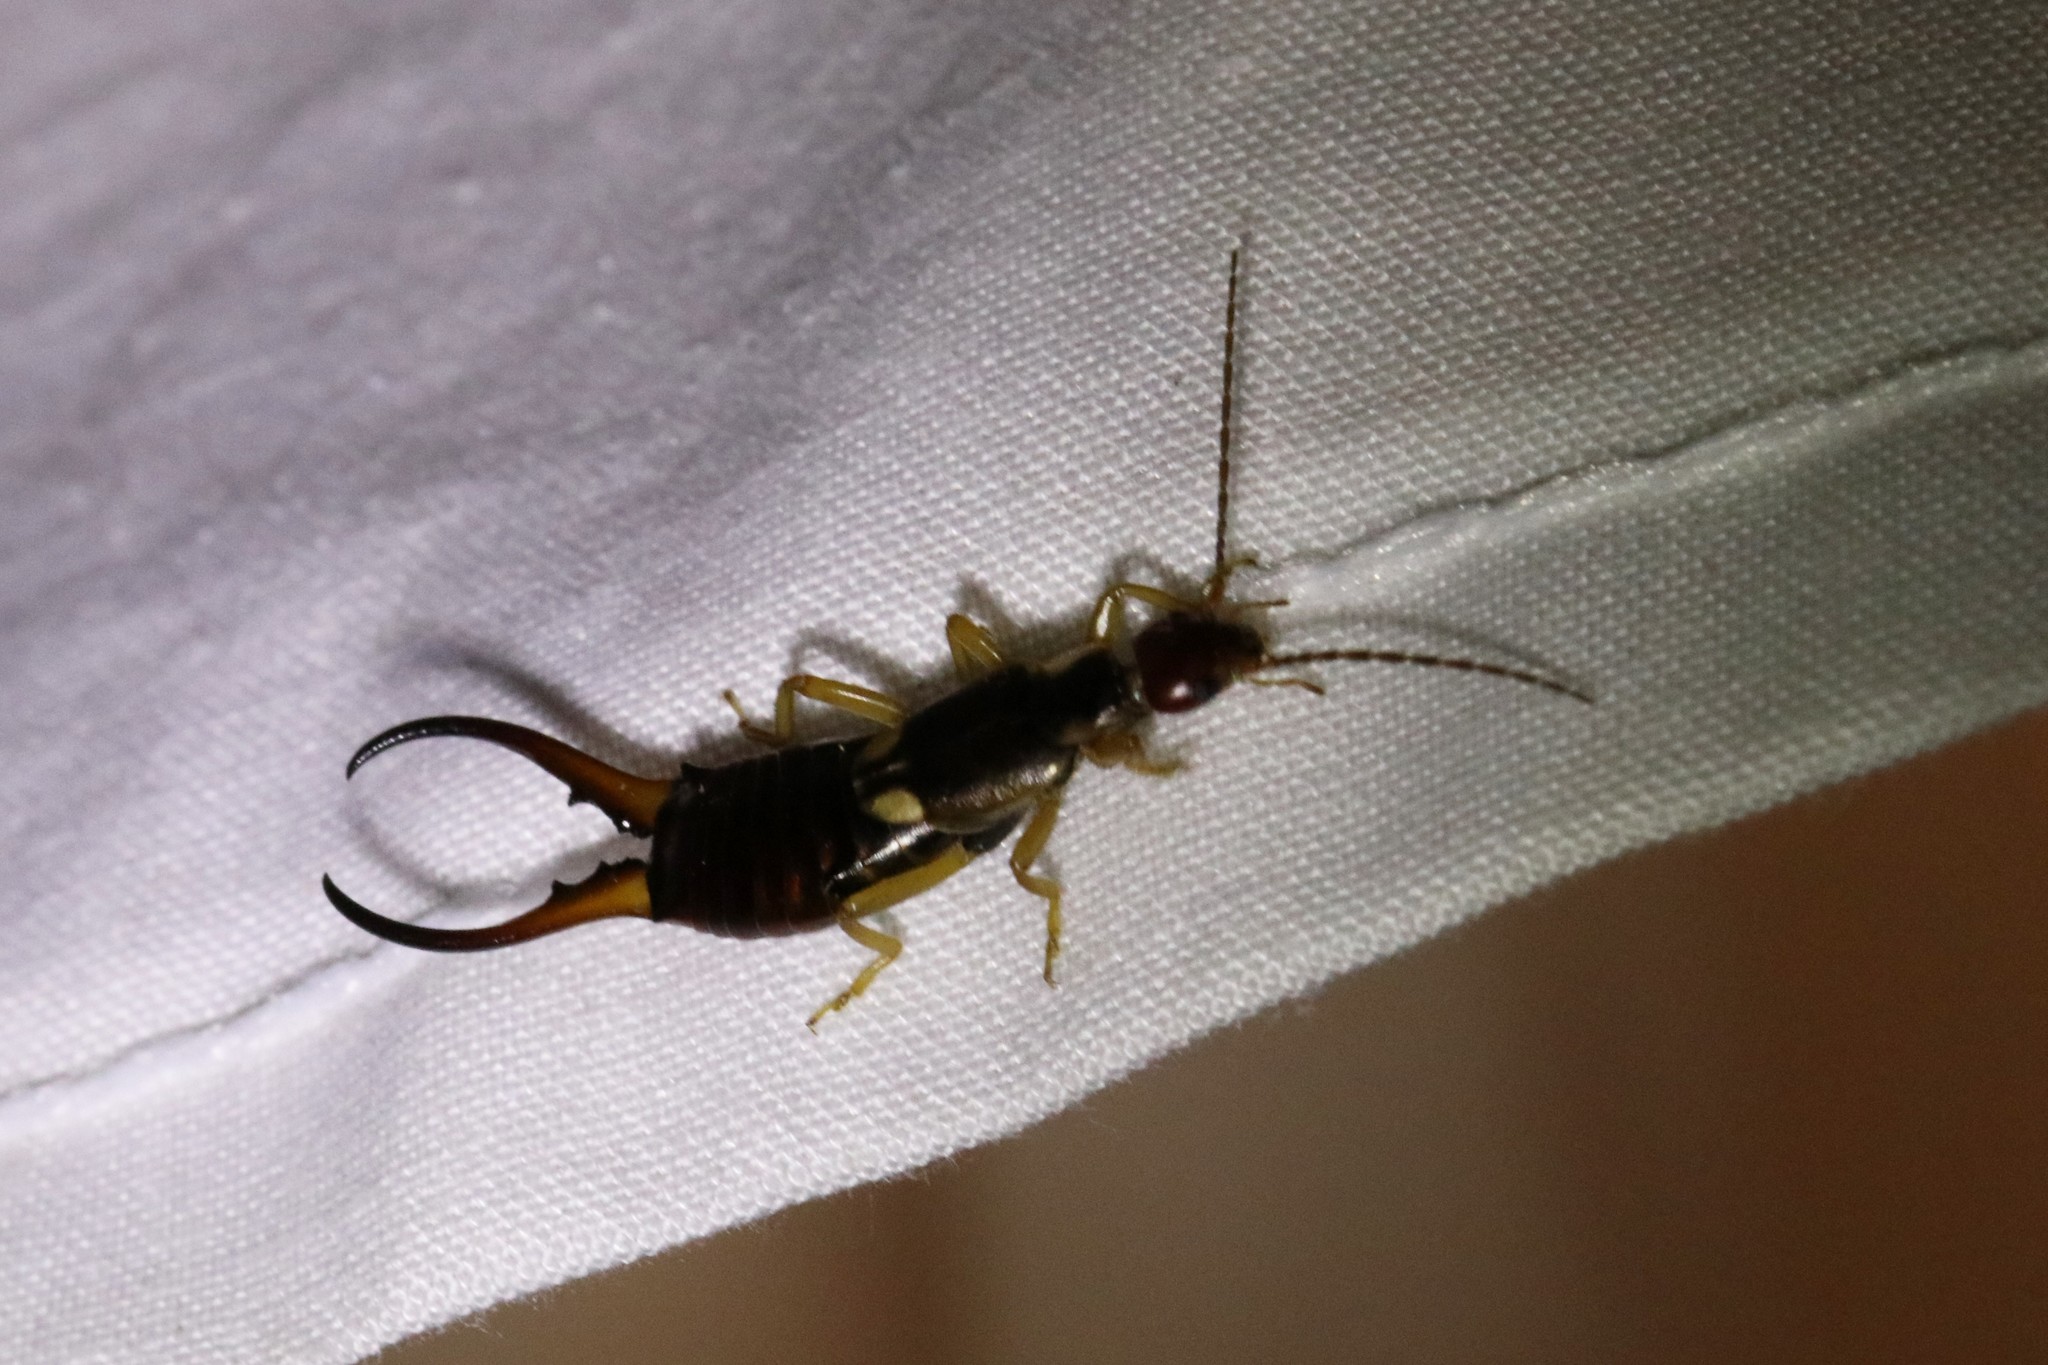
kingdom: Animalia
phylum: Arthropoda
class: Insecta
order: Dermaptera
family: Forficulidae
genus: Forficula
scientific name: Forficula
